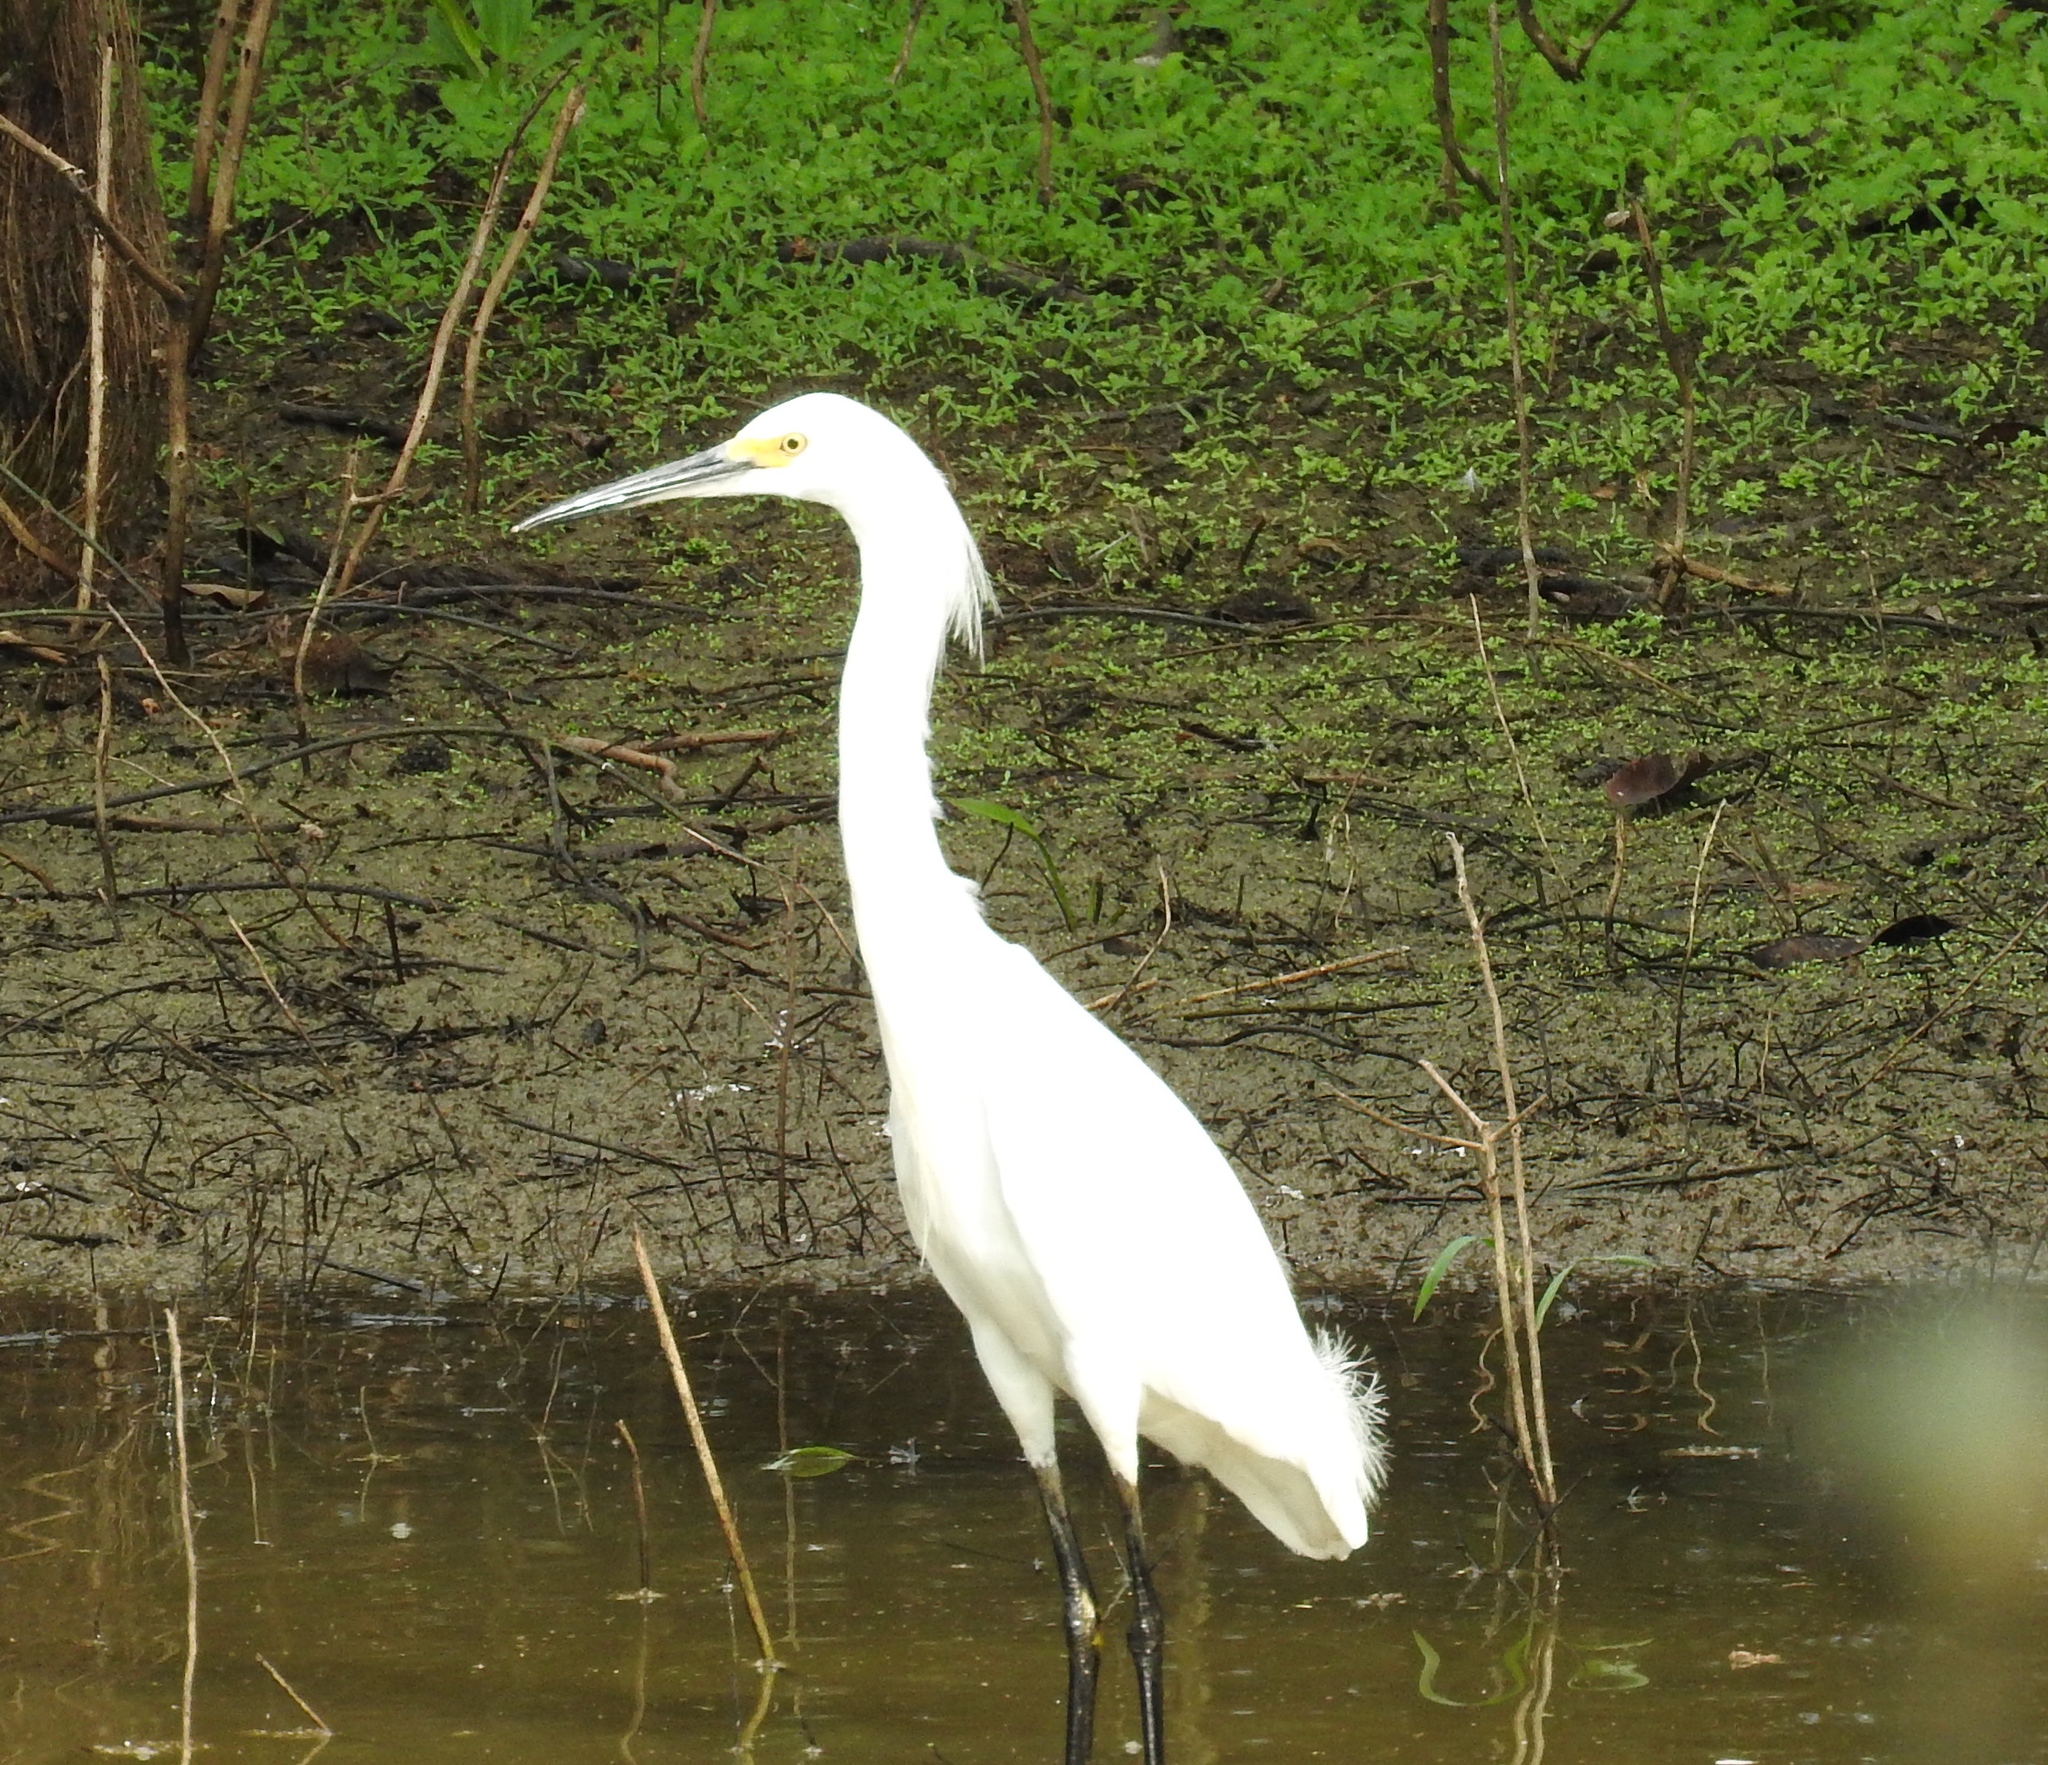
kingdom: Animalia
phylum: Chordata
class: Aves
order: Pelecaniformes
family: Ardeidae
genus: Egretta
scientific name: Egretta thula
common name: Snowy egret
